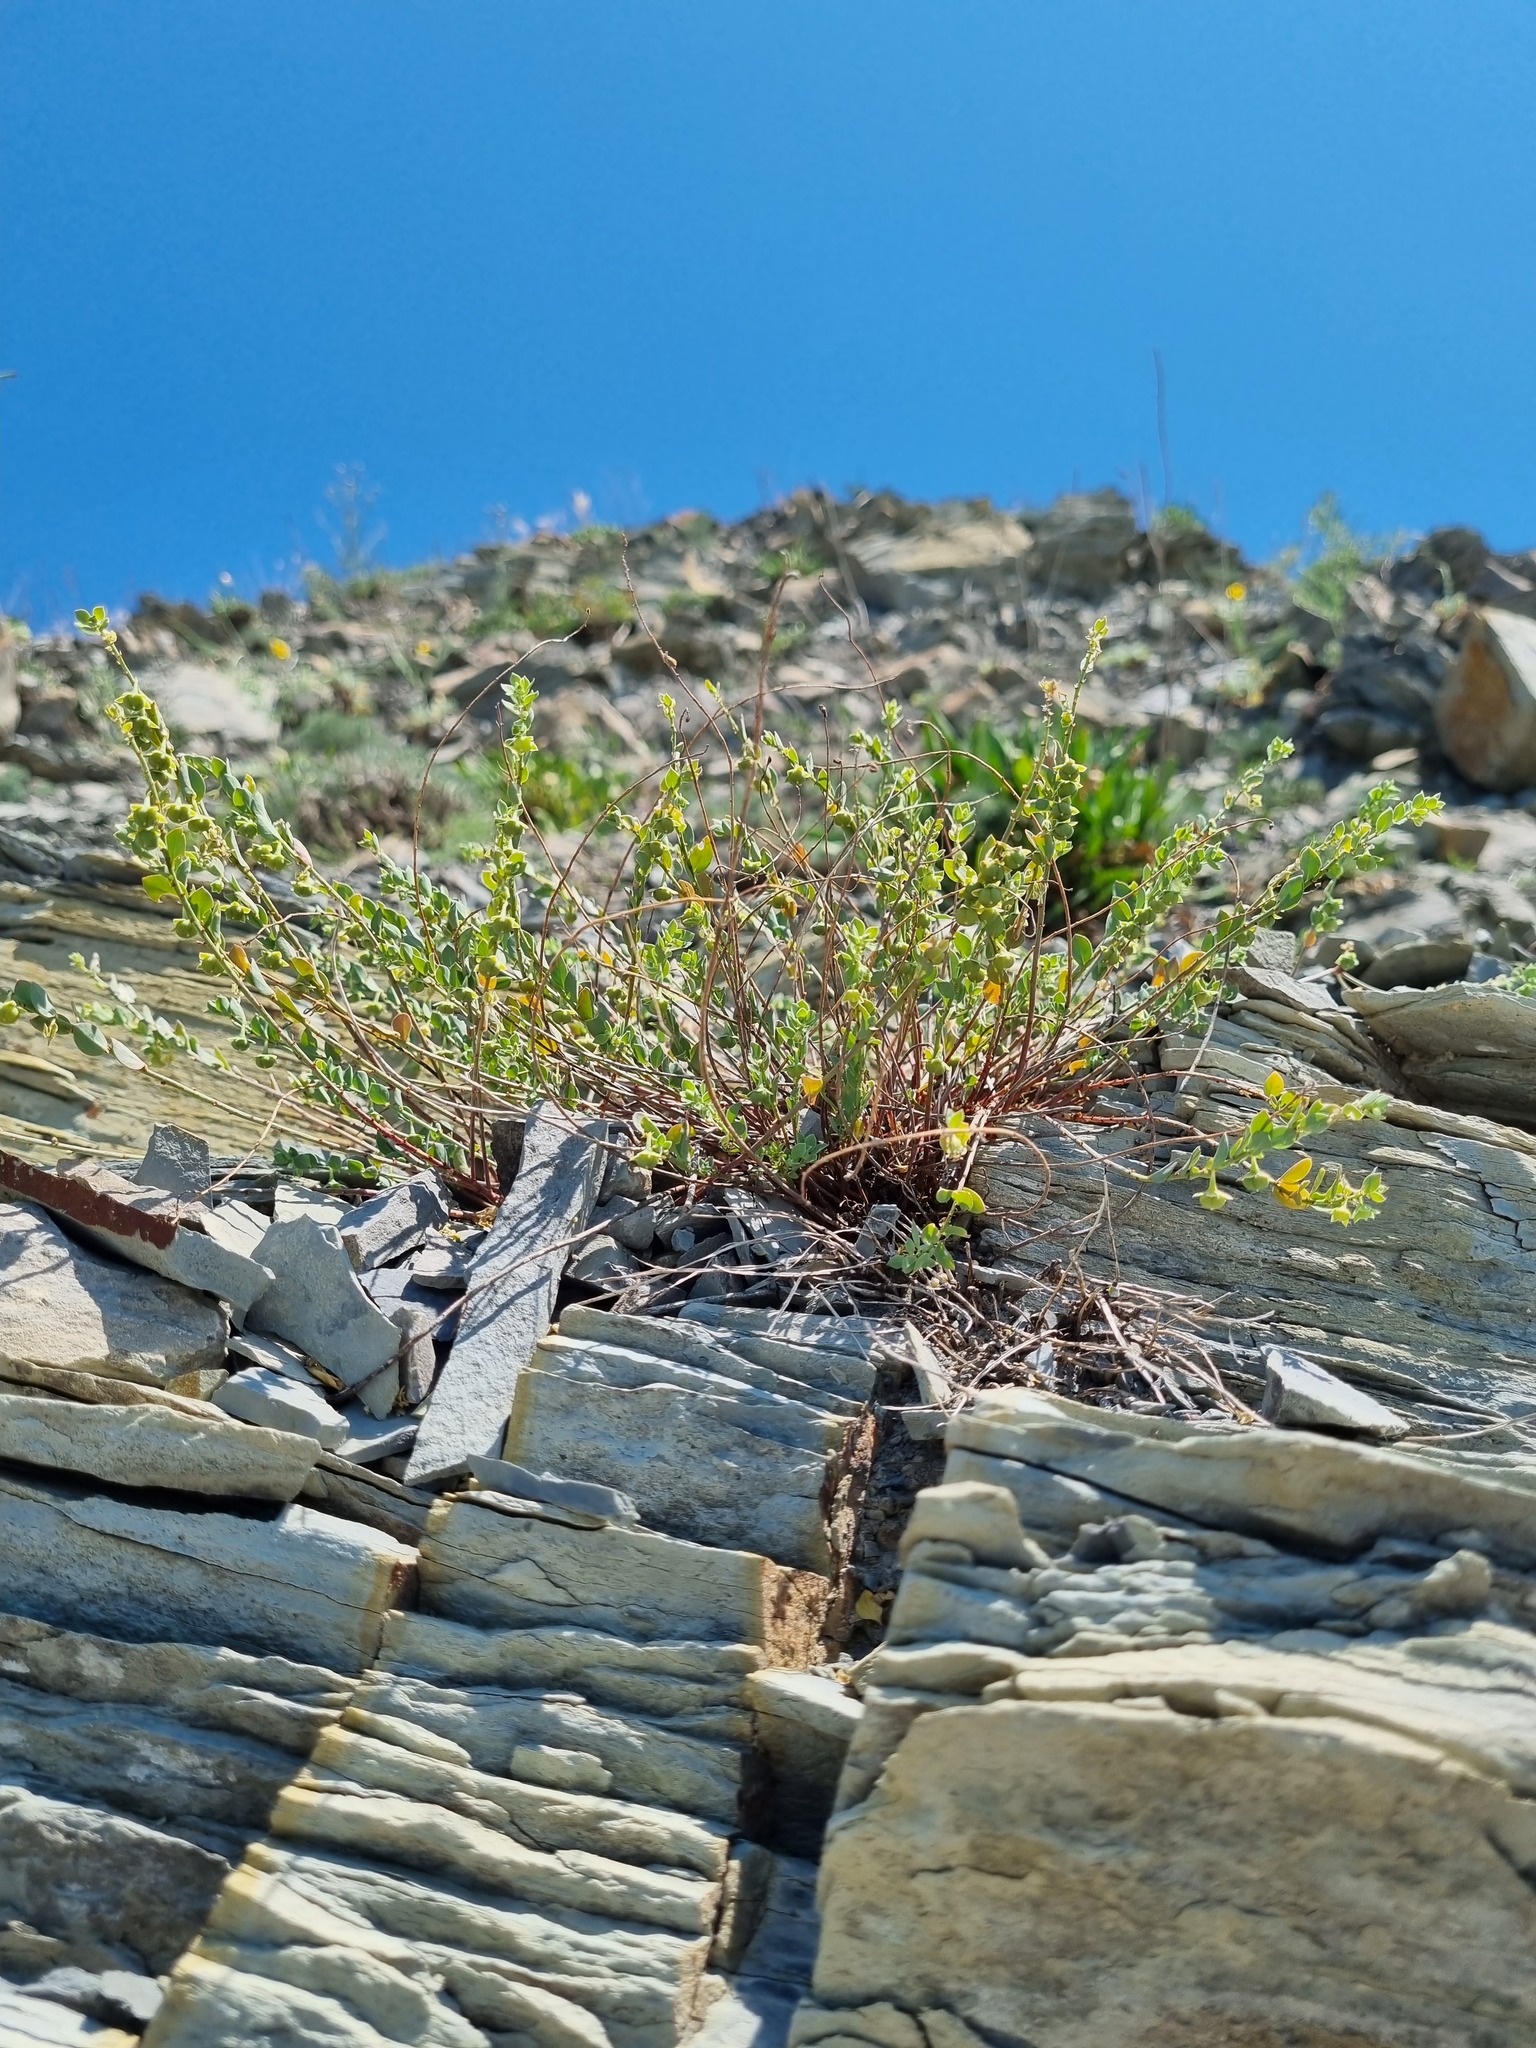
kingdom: Plantae
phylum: Tracheophyta
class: Magnoliopsida
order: Malpighiales
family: Phyllanthaceae
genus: Andrachne
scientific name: Andrachne telephioides
